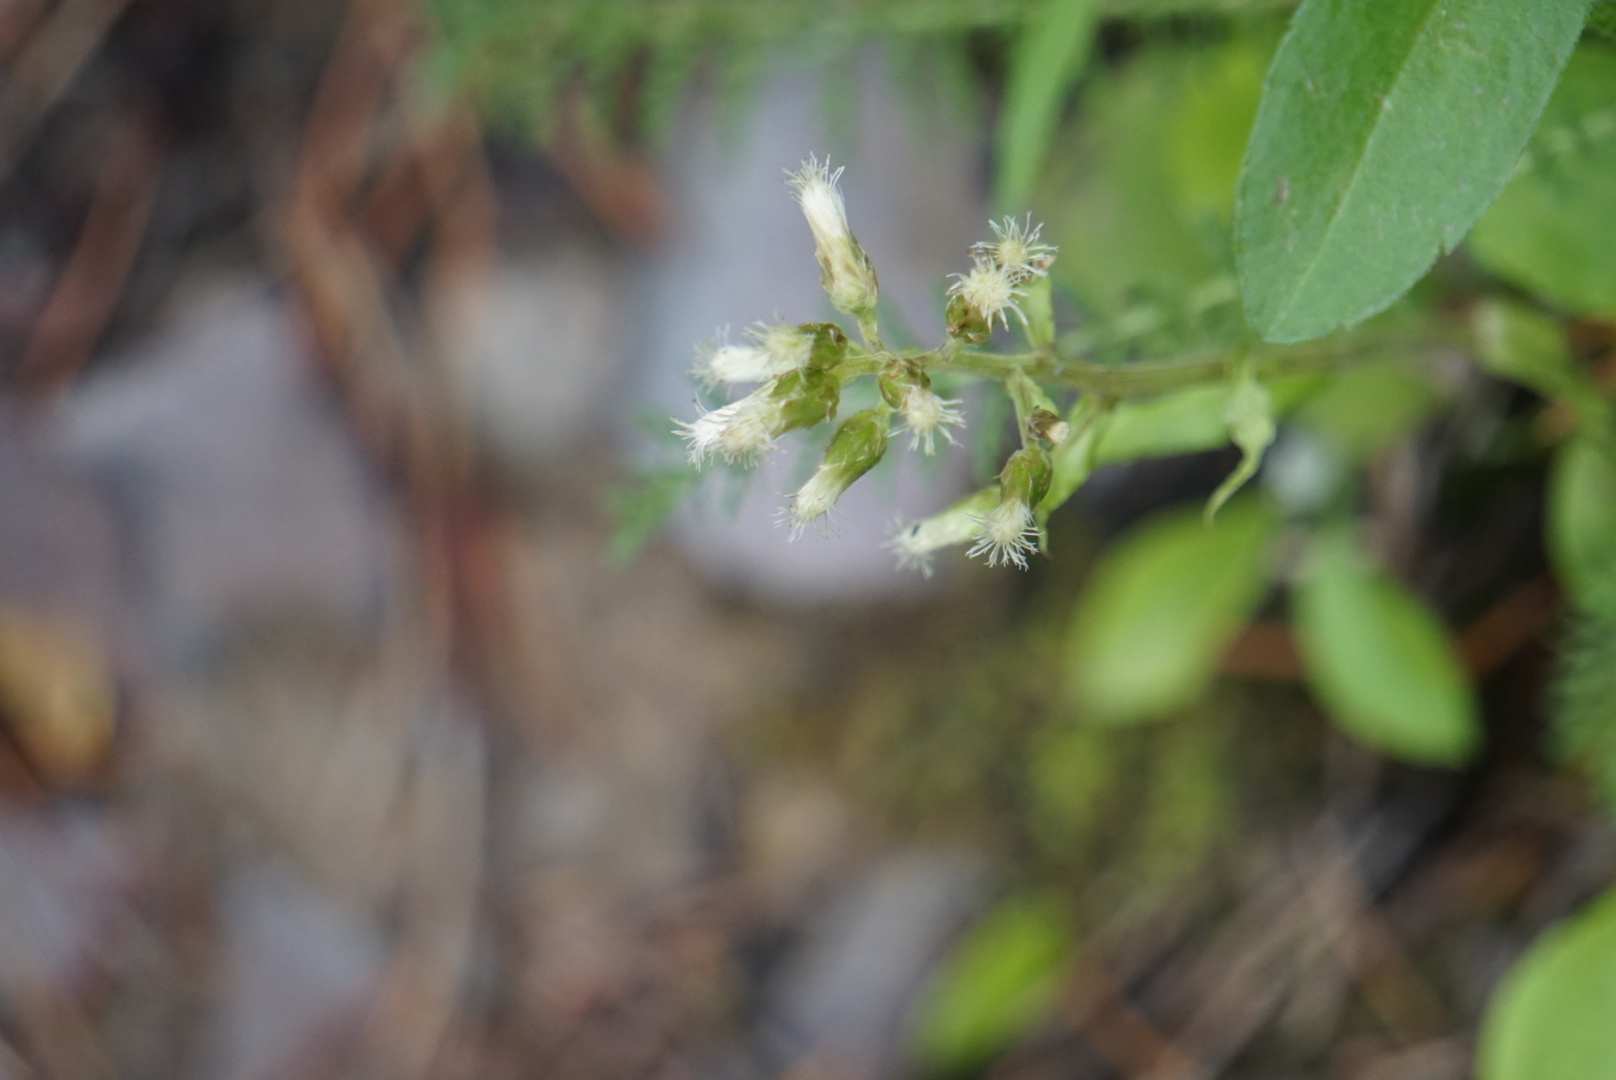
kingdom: Plantae
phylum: Tracheophyta
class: Magnoliopsida
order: Asterales
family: Asteraceae
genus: Antennaria
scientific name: Antennaria racemosa
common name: Racemose pussytoes
